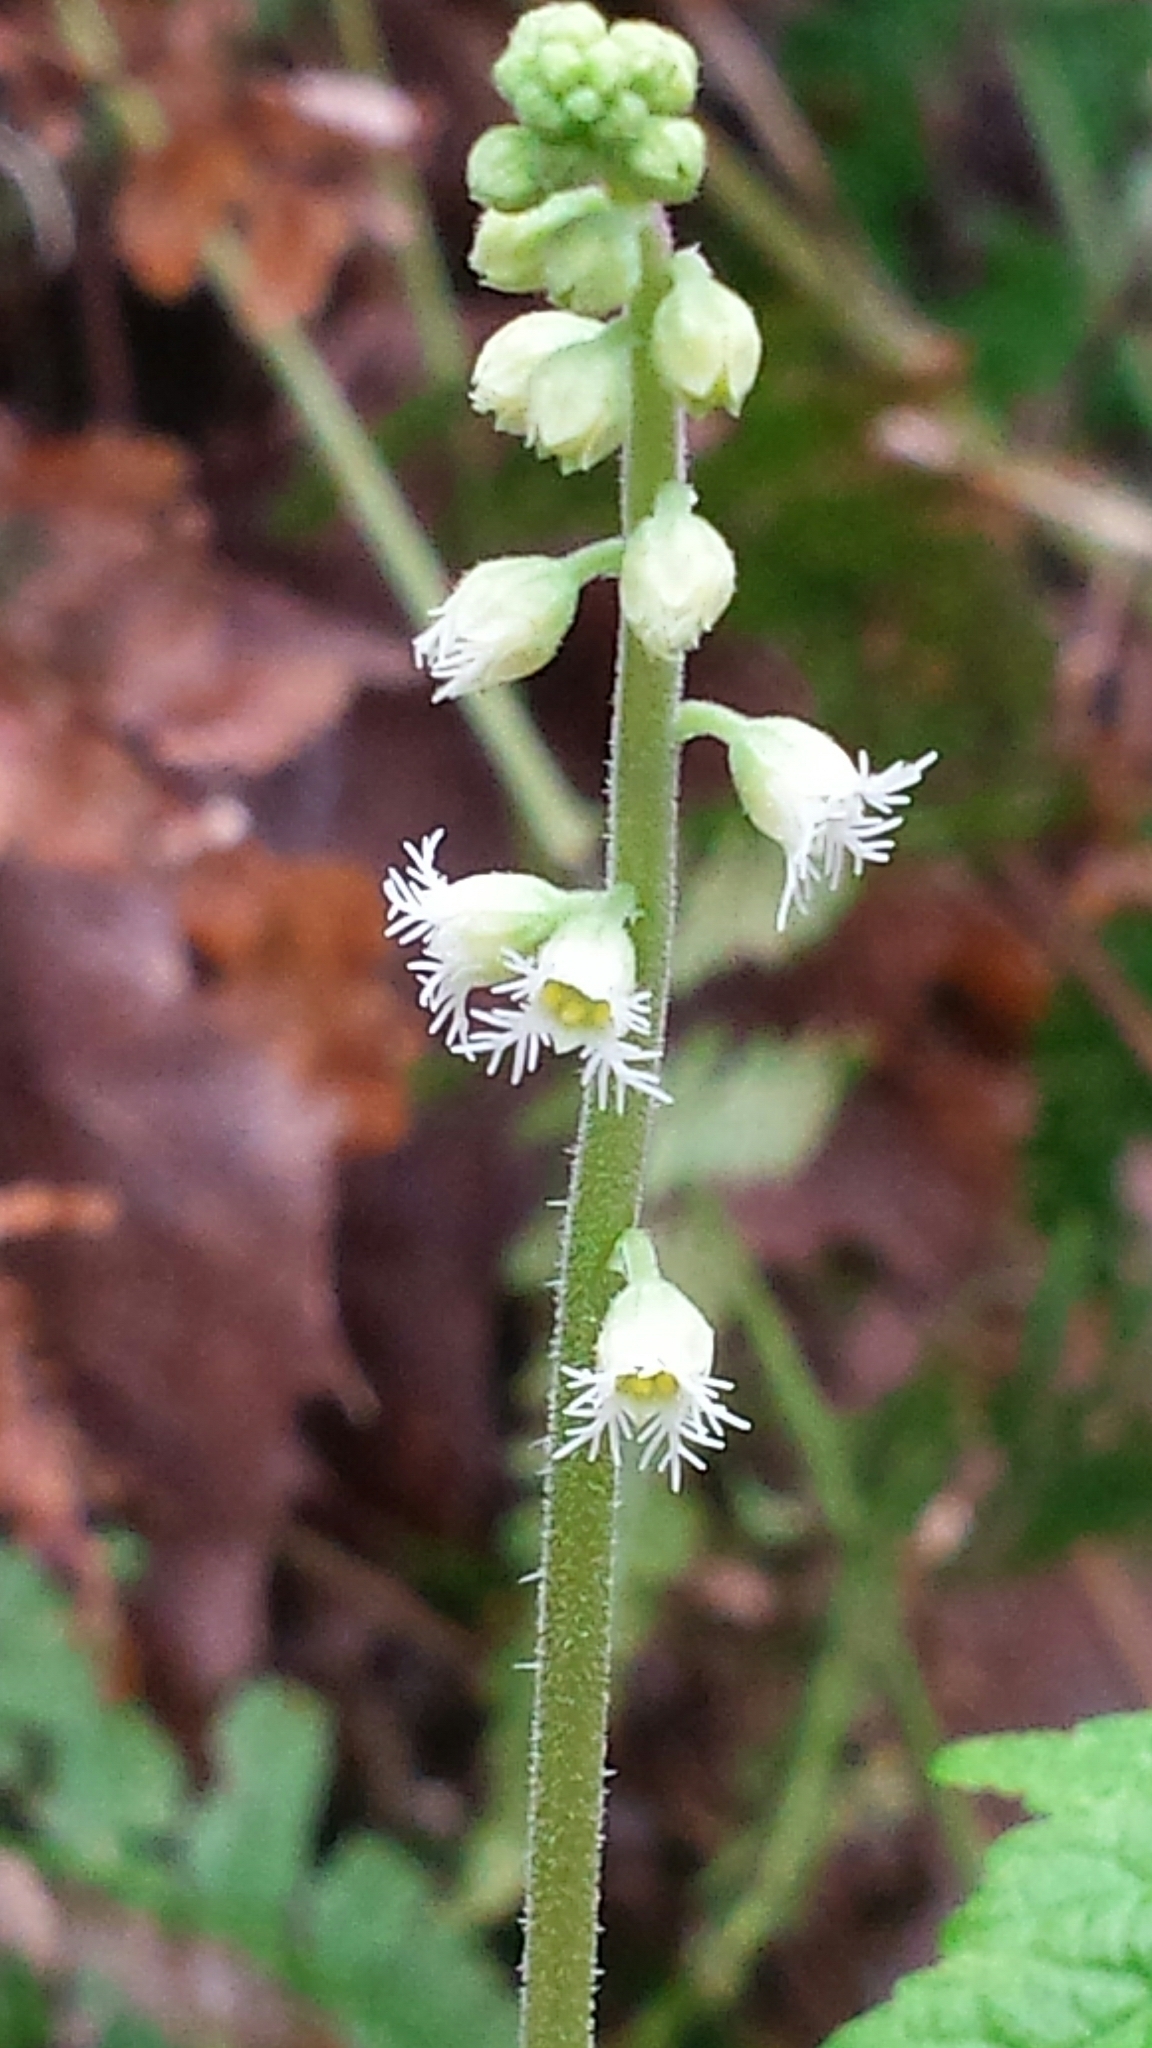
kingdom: Plantae
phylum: Tracheophyta
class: Magnoliopsida
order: Saxifragales
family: Saxifragaceae
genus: Mitella
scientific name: Mitella diphylla
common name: Coolwort
